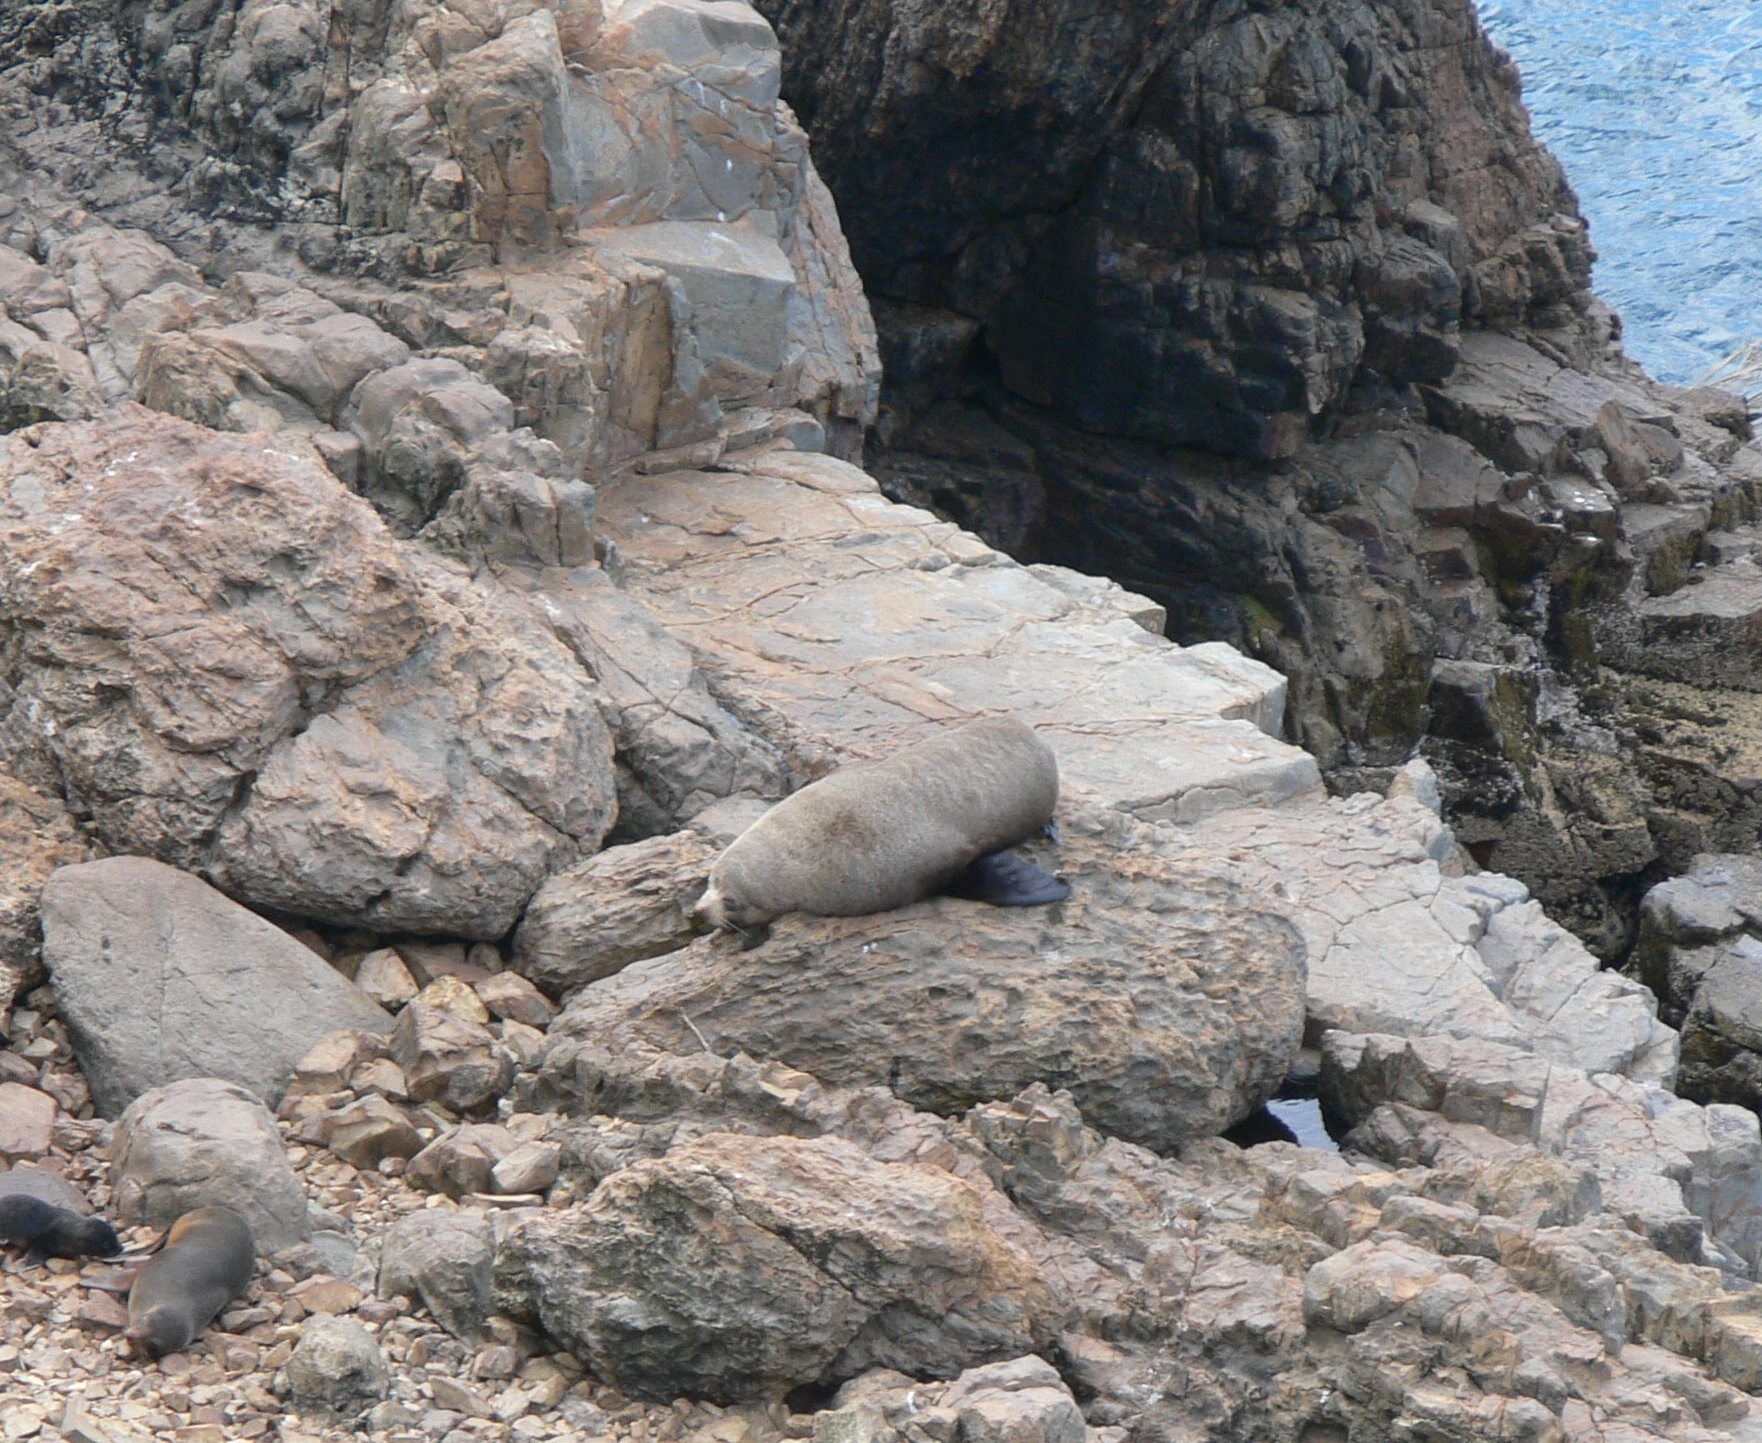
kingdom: Animalia
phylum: Chordata
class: Mammalia
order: Carnivora
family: Otariidae
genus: Arctocephalus
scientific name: Arctocephalus forsteri
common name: New zealand fur seal
